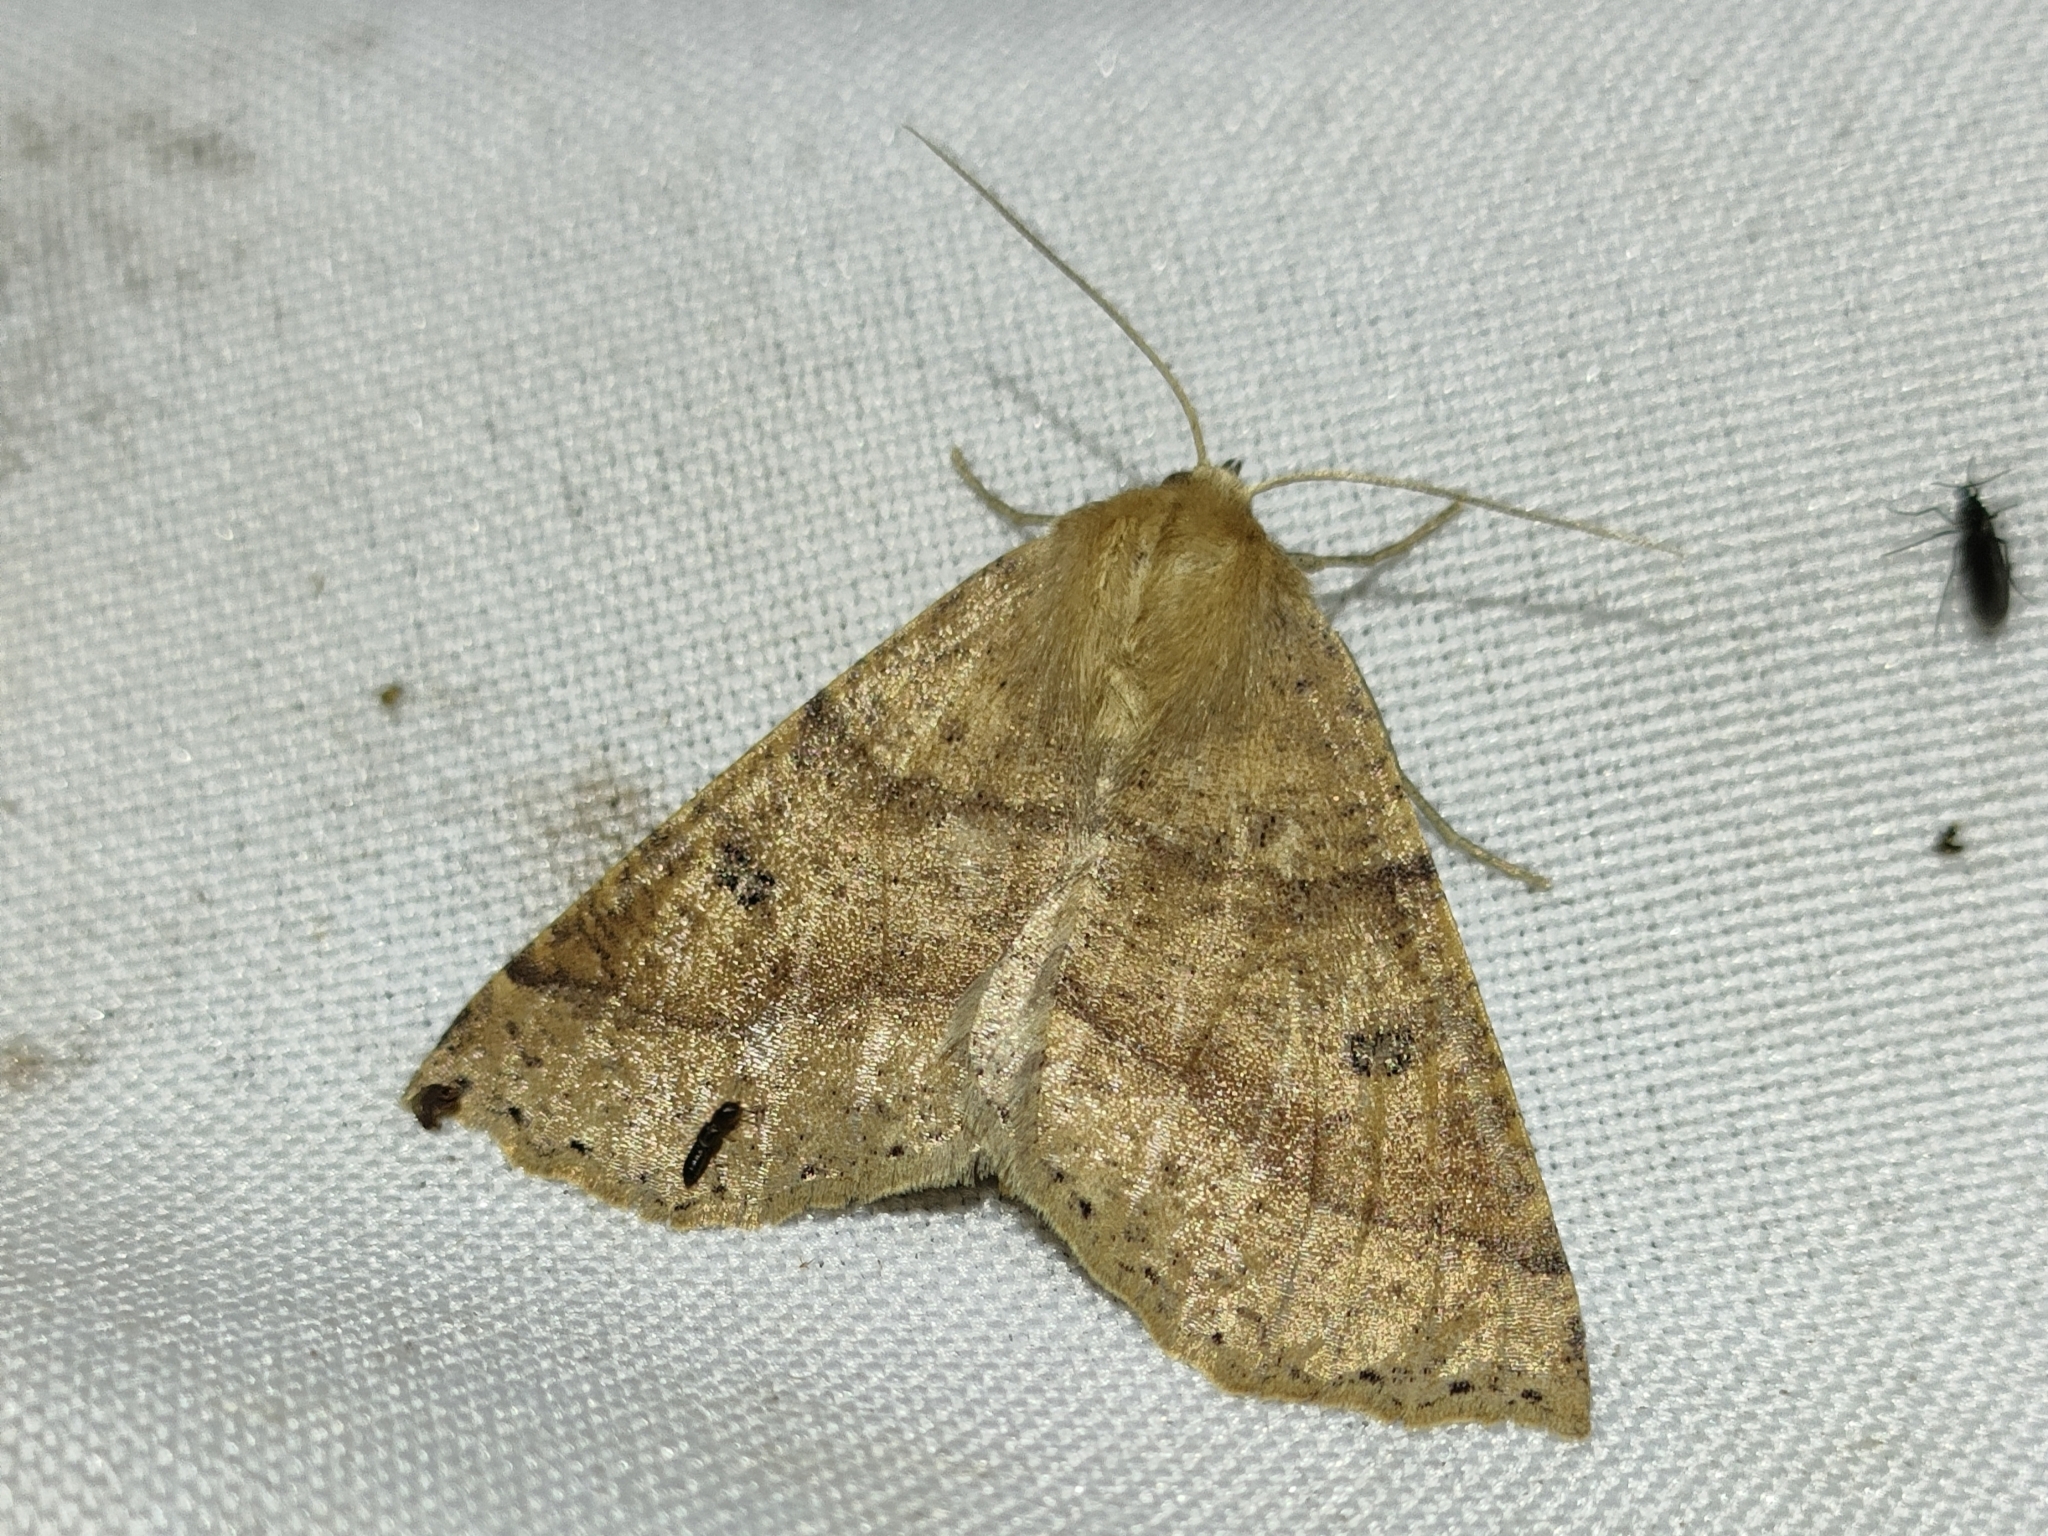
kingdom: Animalia
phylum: Arthropoda
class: Insecta
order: Lepidoptera
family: Geometridae
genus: Crocallis
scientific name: Crocallis dardoinaria
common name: Dusky scalloped oak
